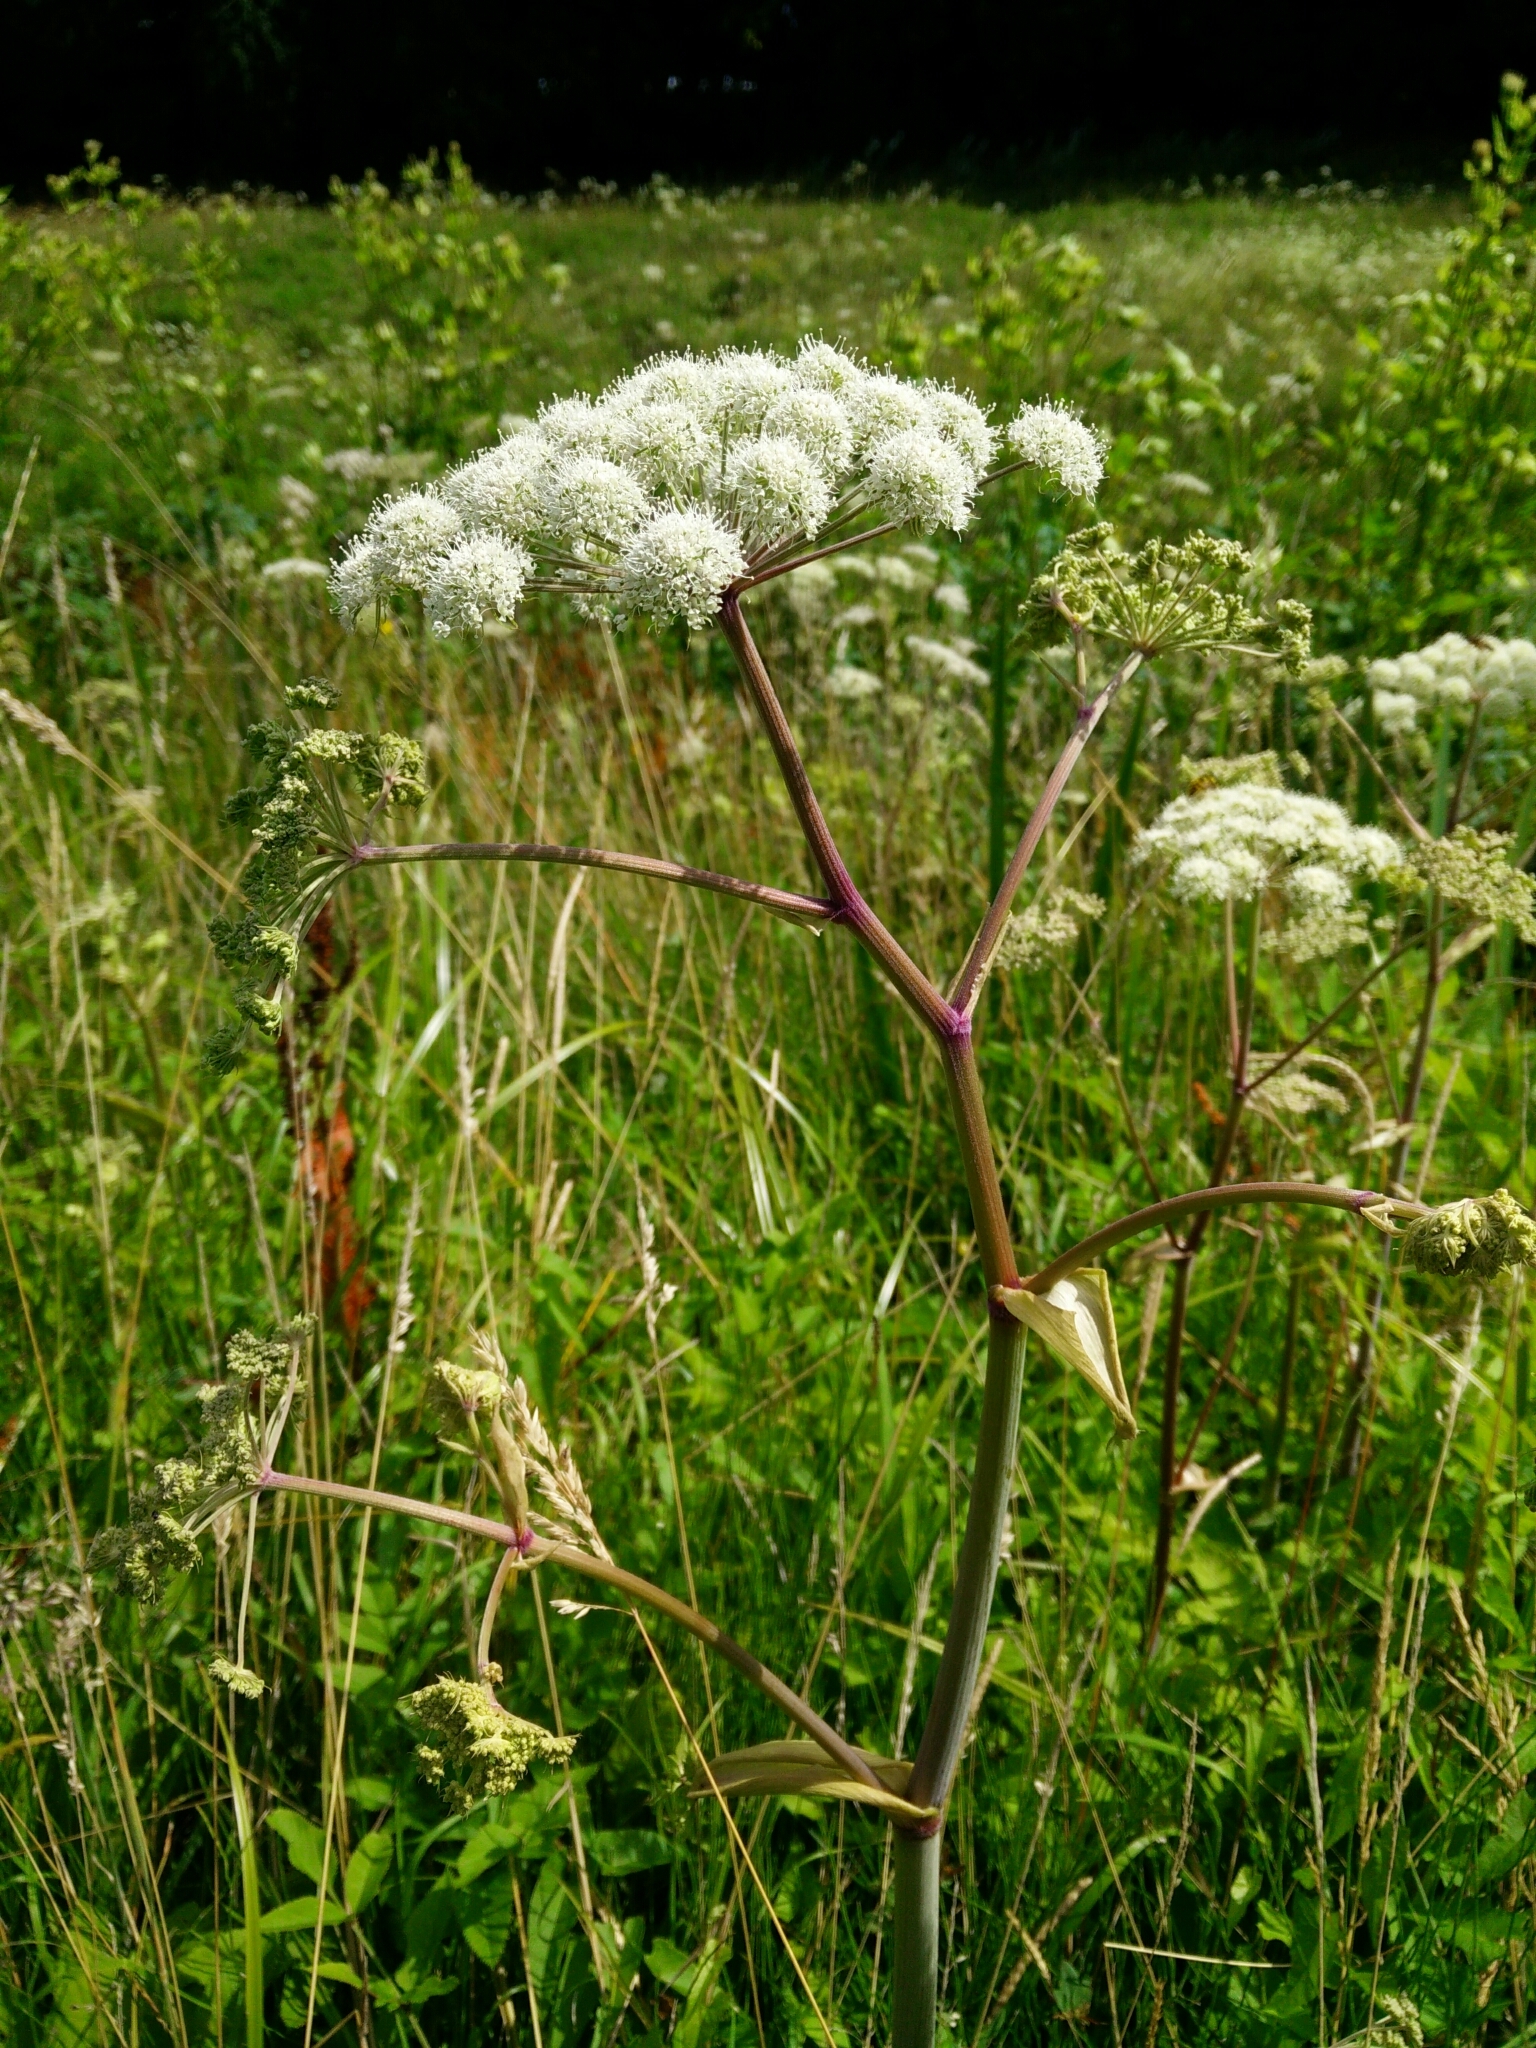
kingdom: Plantae
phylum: Tracheophyta
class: Magnoliopsida
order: Apiales
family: Apiaceae
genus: Angelica
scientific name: Angelica sylvestris
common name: Wild angelica
